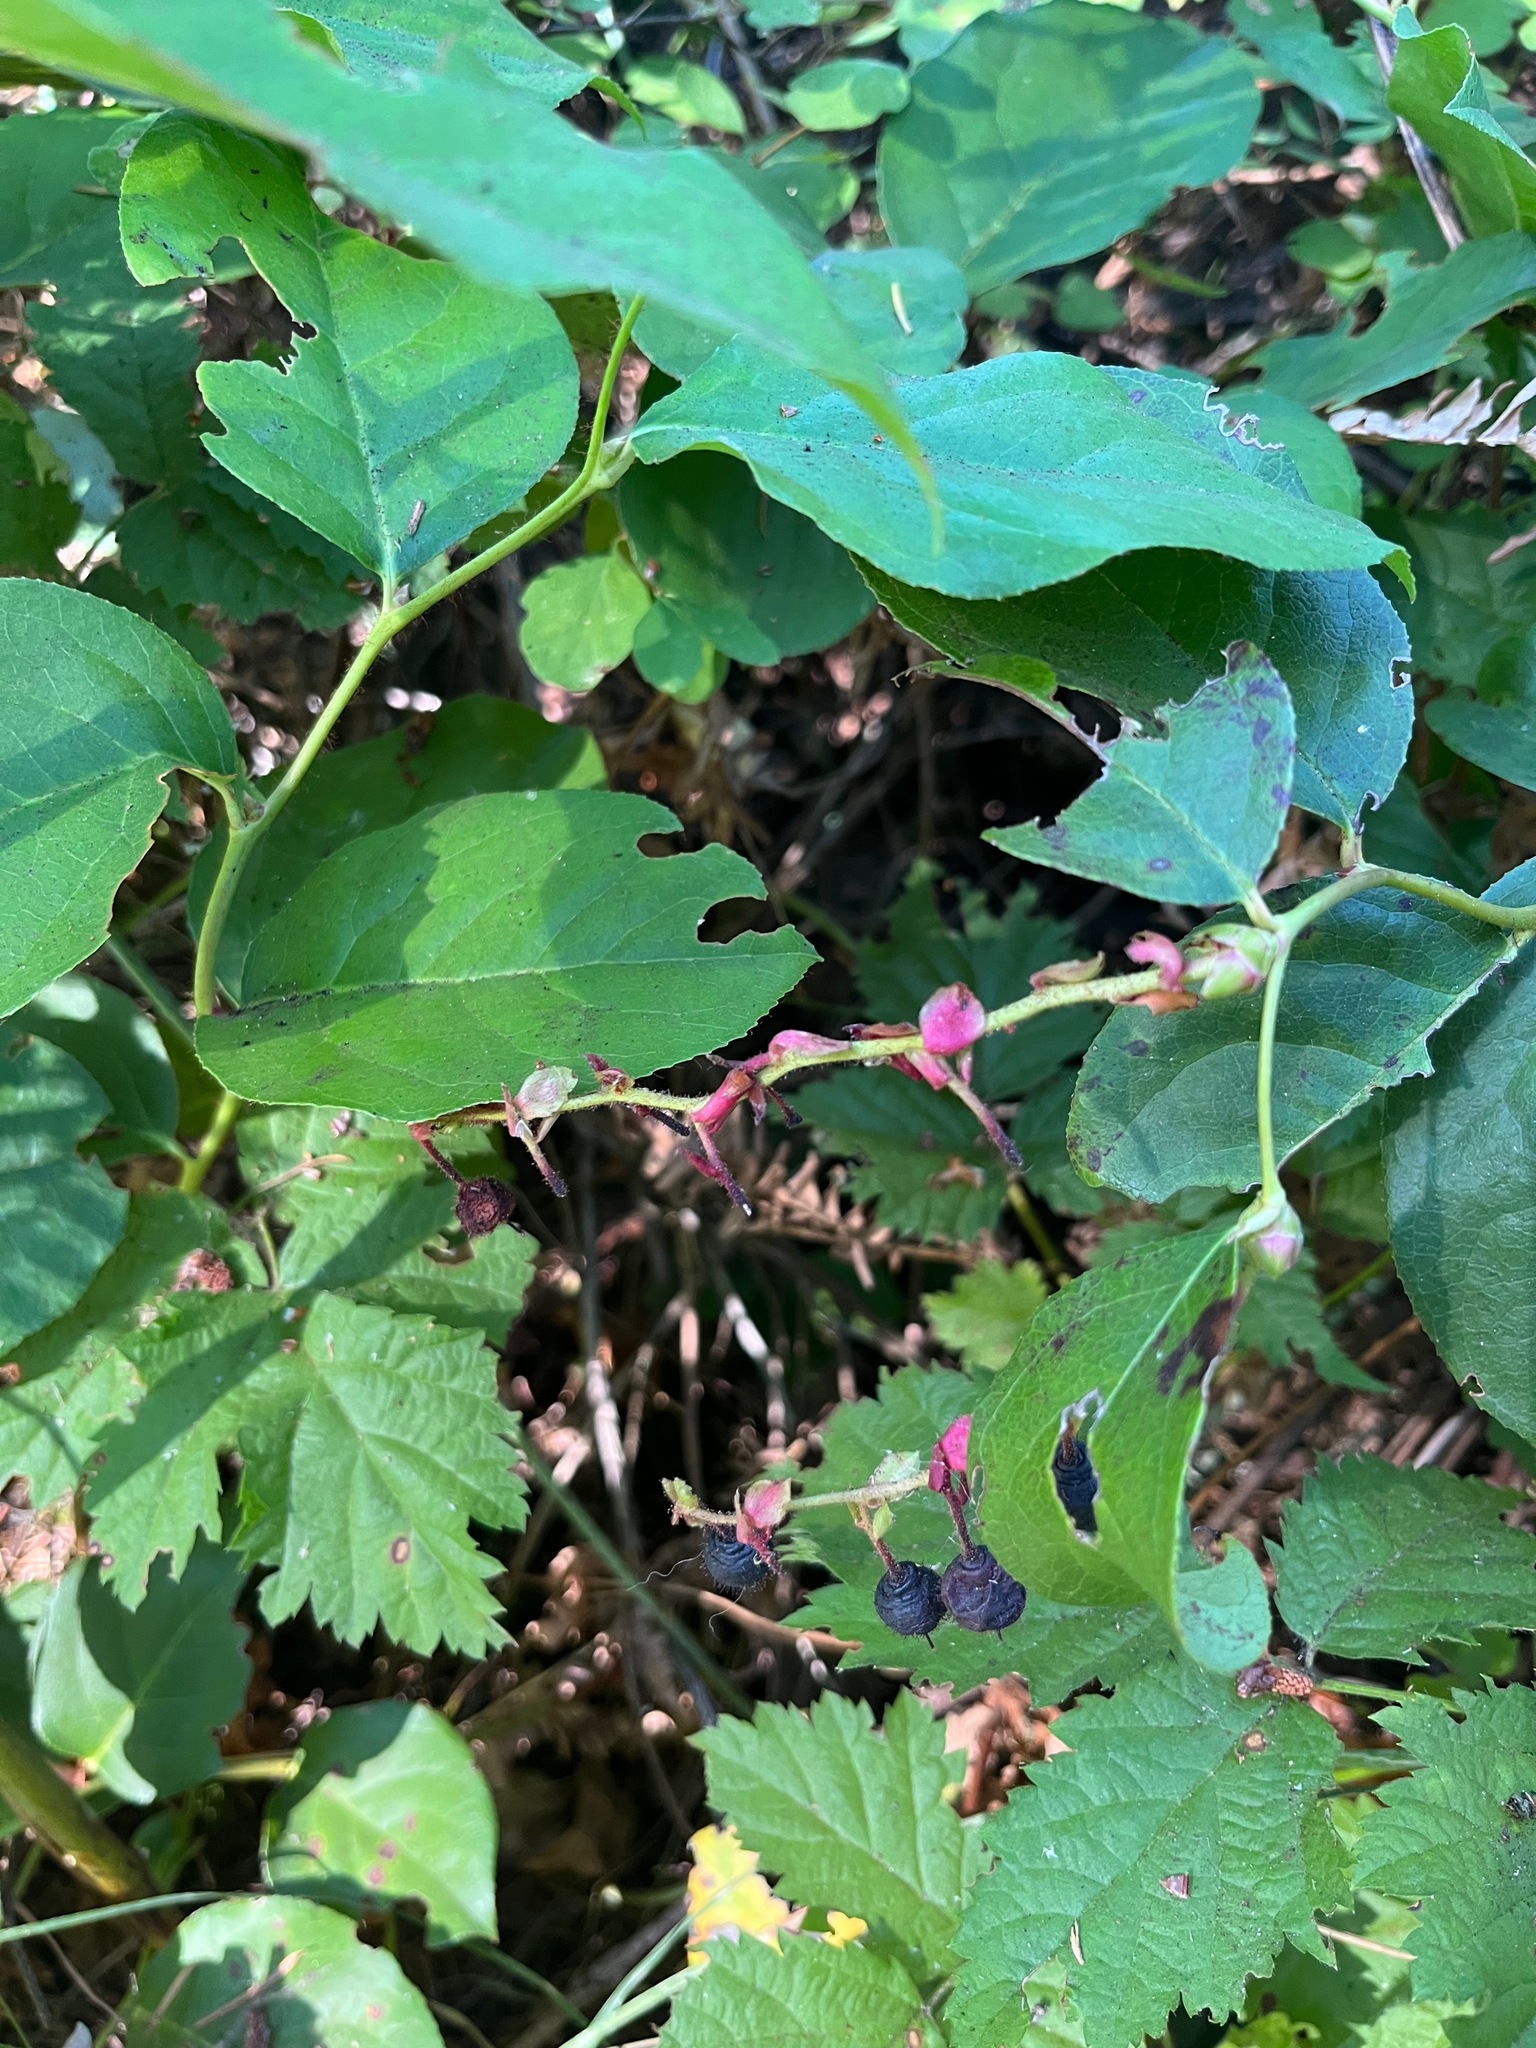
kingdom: Plantae
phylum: Tracheophyta
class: Magnoliopsida
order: Ericales
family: Ericaceae
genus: Gaultheria
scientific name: Gaultheria shallon
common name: Shallon
